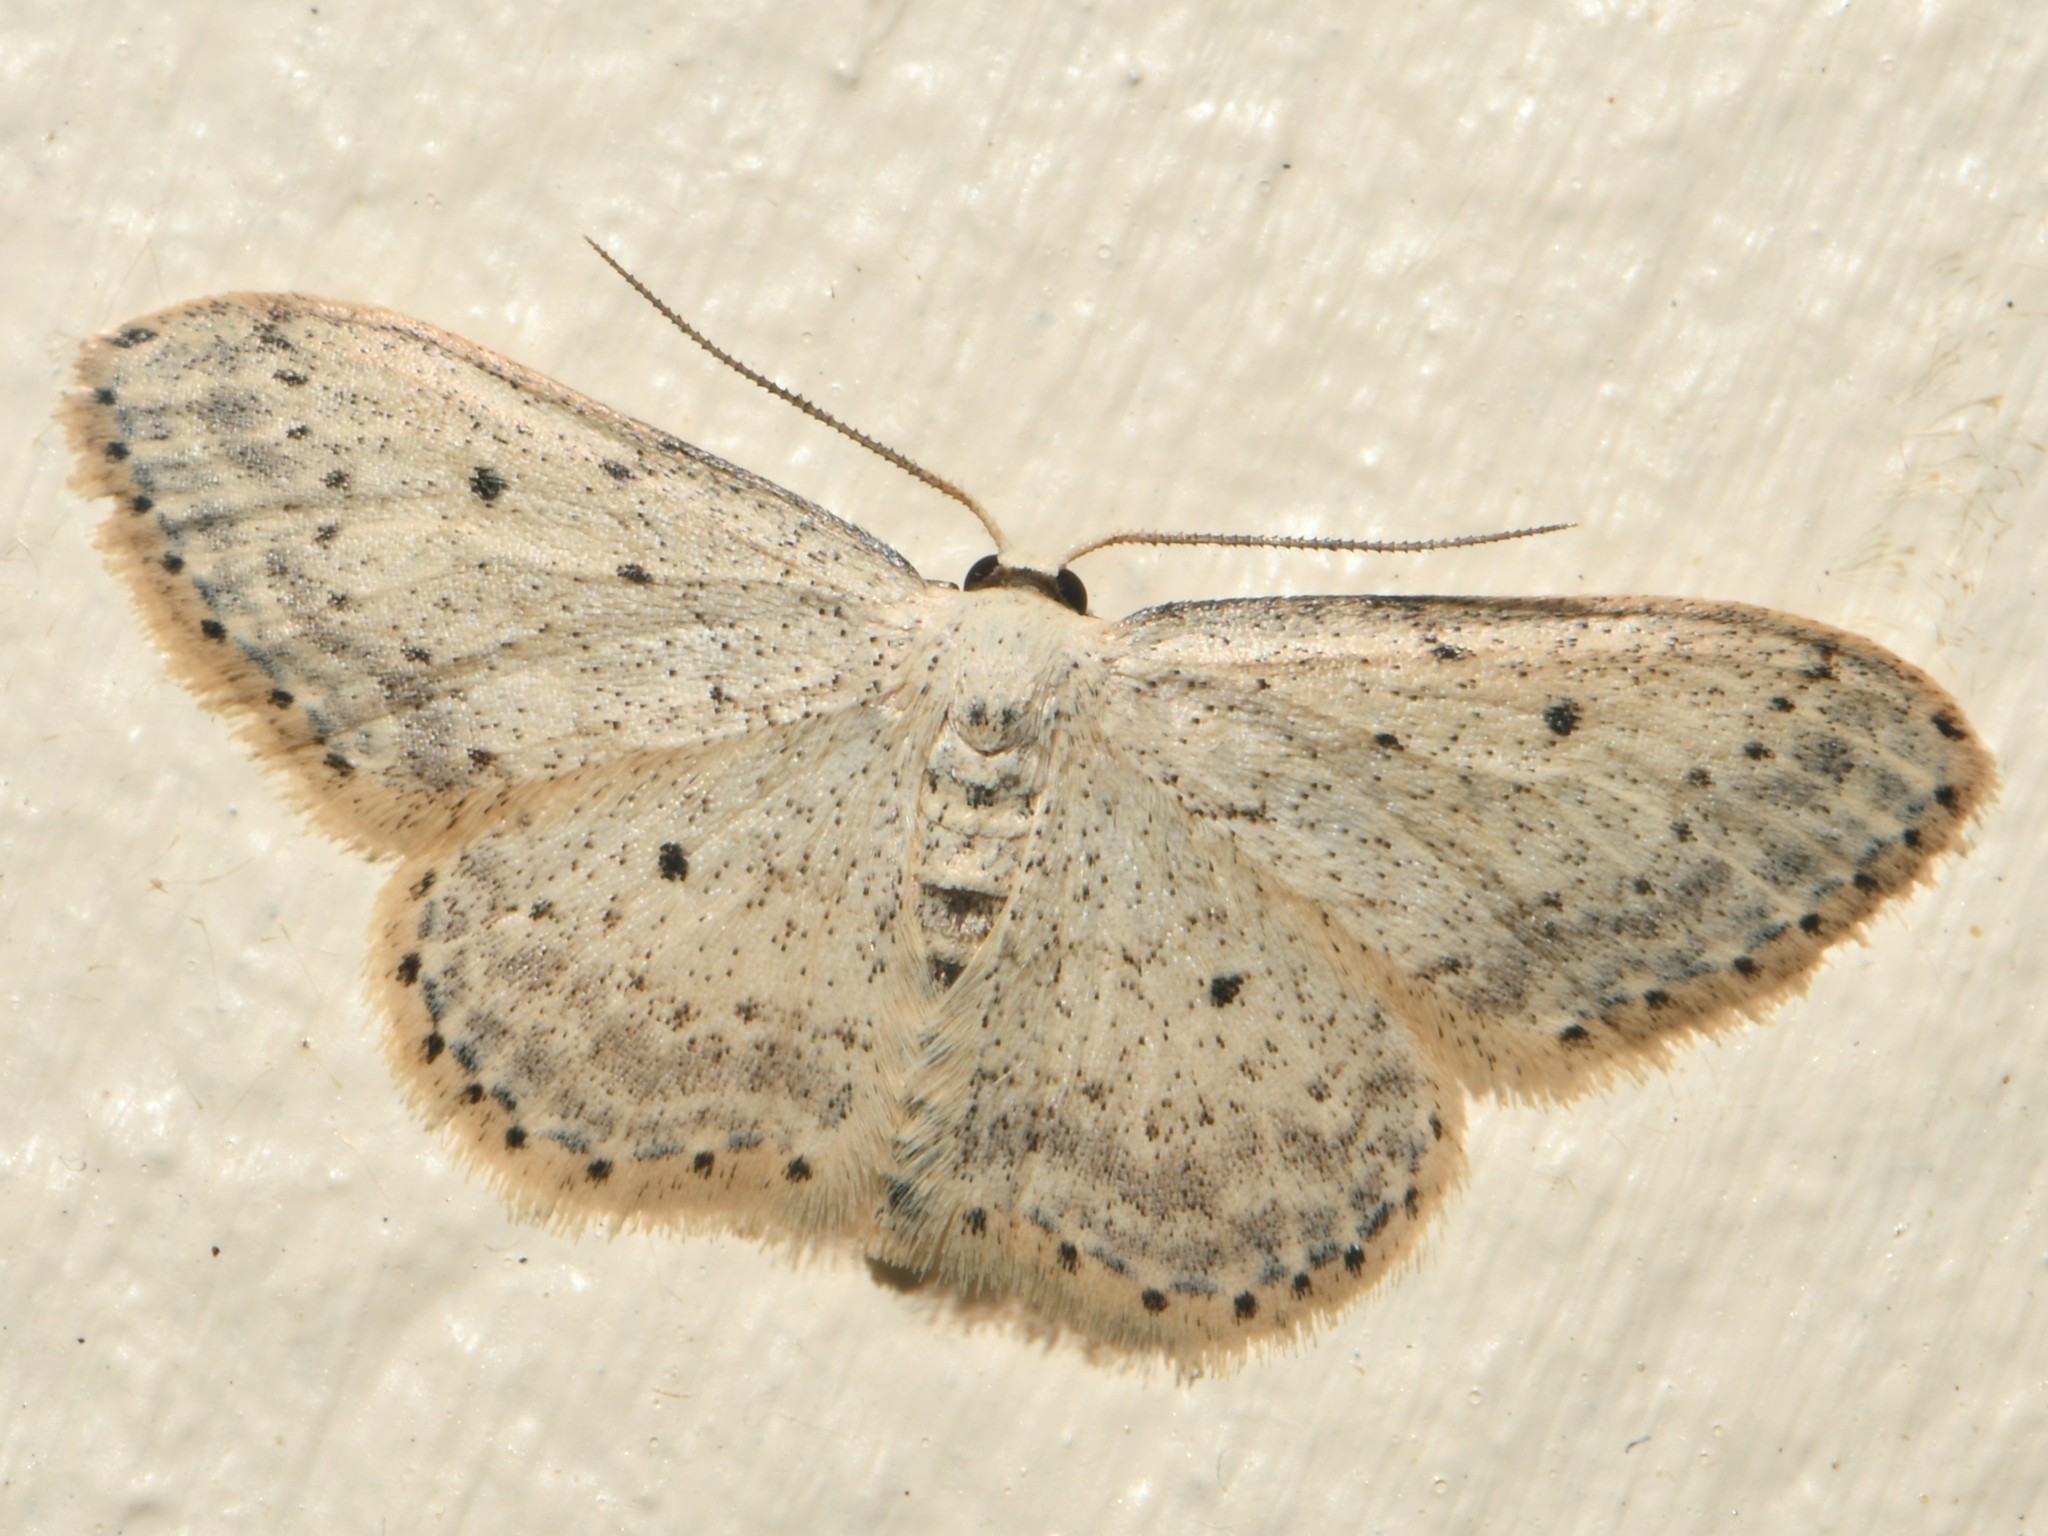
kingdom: Animalia
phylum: Arthropoda
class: Insecta
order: Lepidoptera
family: Geometridae
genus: Idaea
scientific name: Idaea seriata
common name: Small dusty wave
